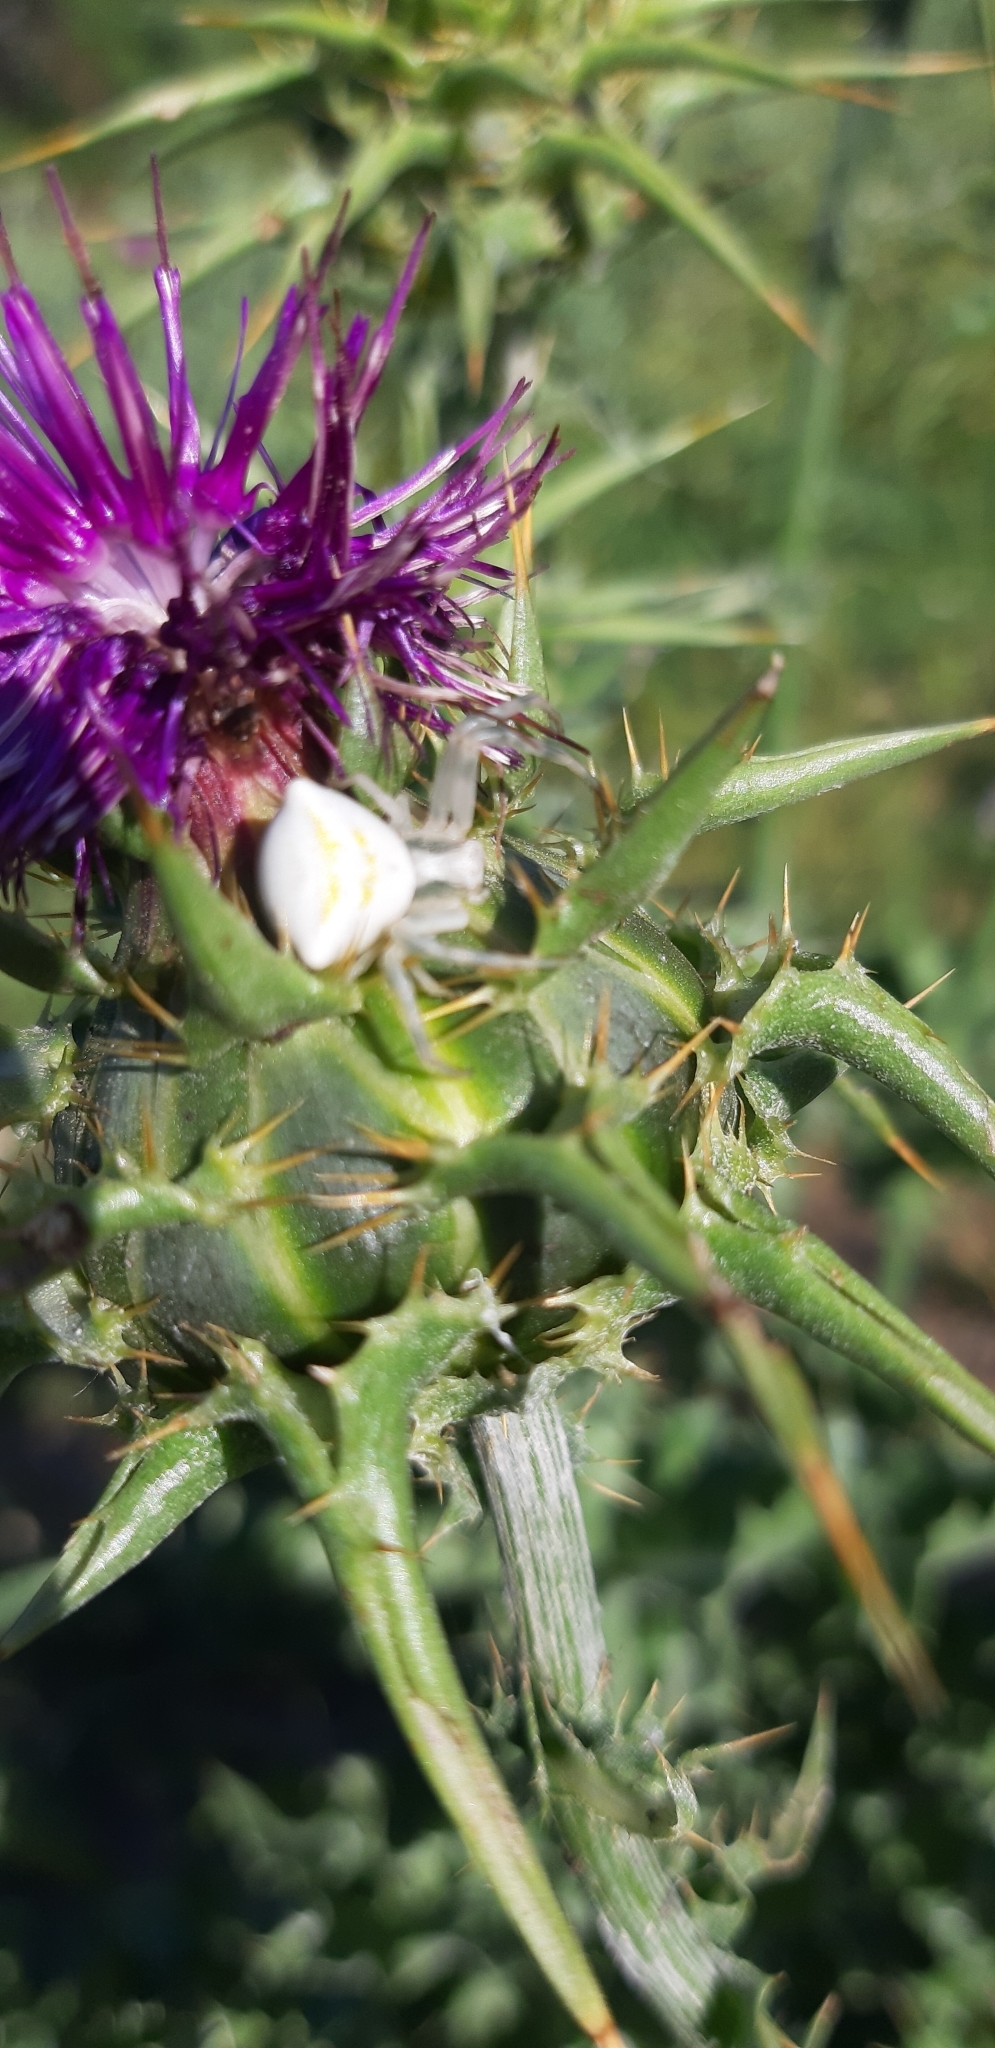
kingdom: Animalia
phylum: Arthropoda
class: Arachnida
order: Araneae
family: Thomisidae
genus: Thomisus
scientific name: Thomisus onustus
